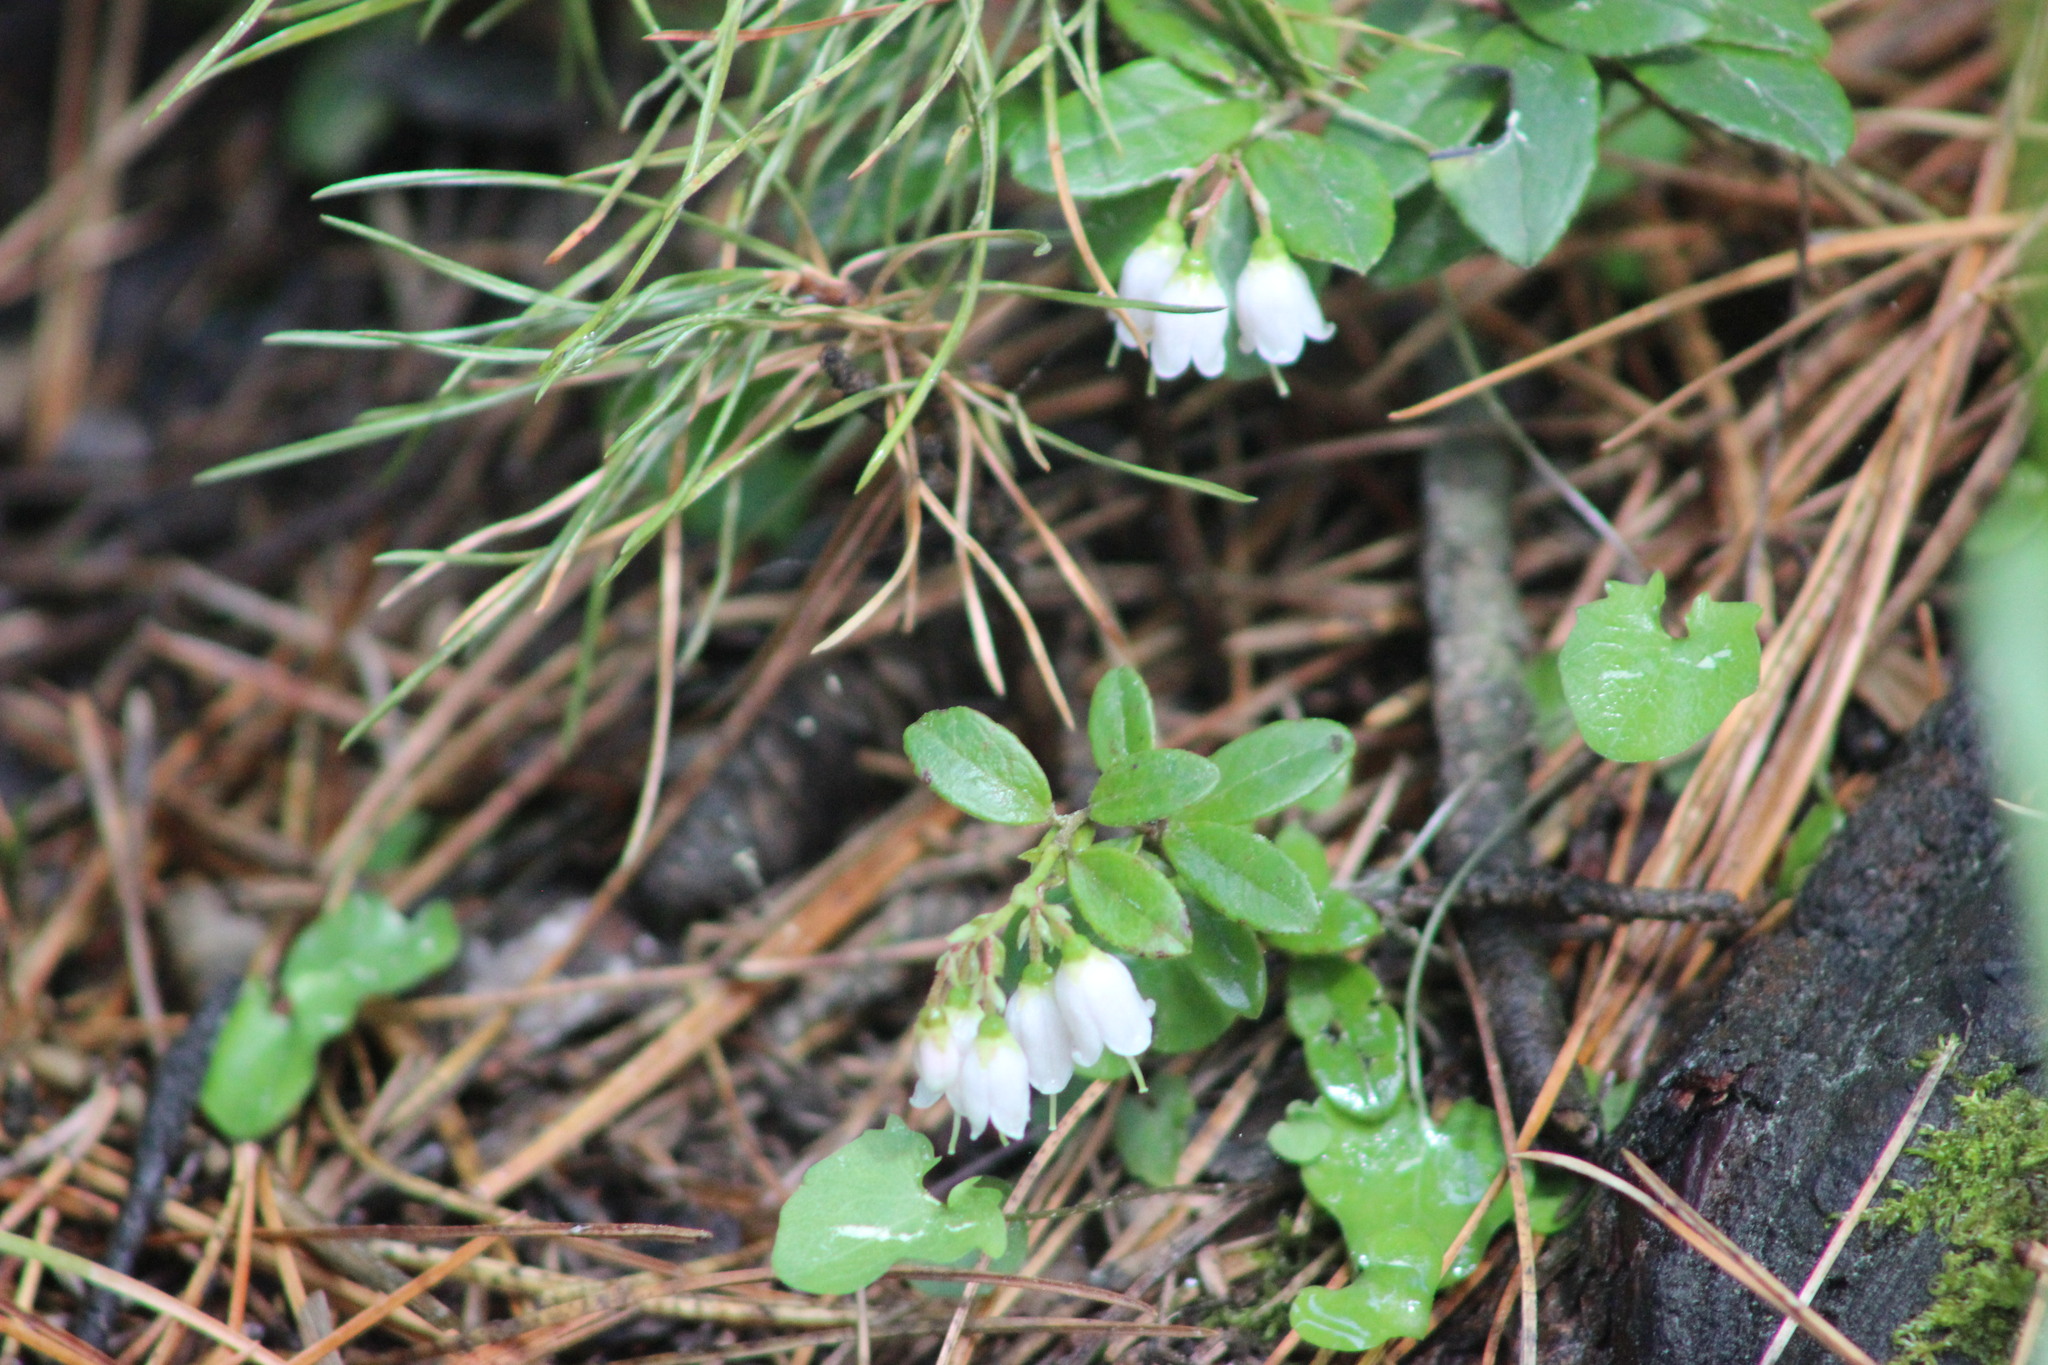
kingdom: Plantae
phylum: Tracheophyta
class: Magnoliopsida
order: Ericales
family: Ericaceae
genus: Vaccinium
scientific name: Vaccinium vitis-idaea
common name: Cowberry
